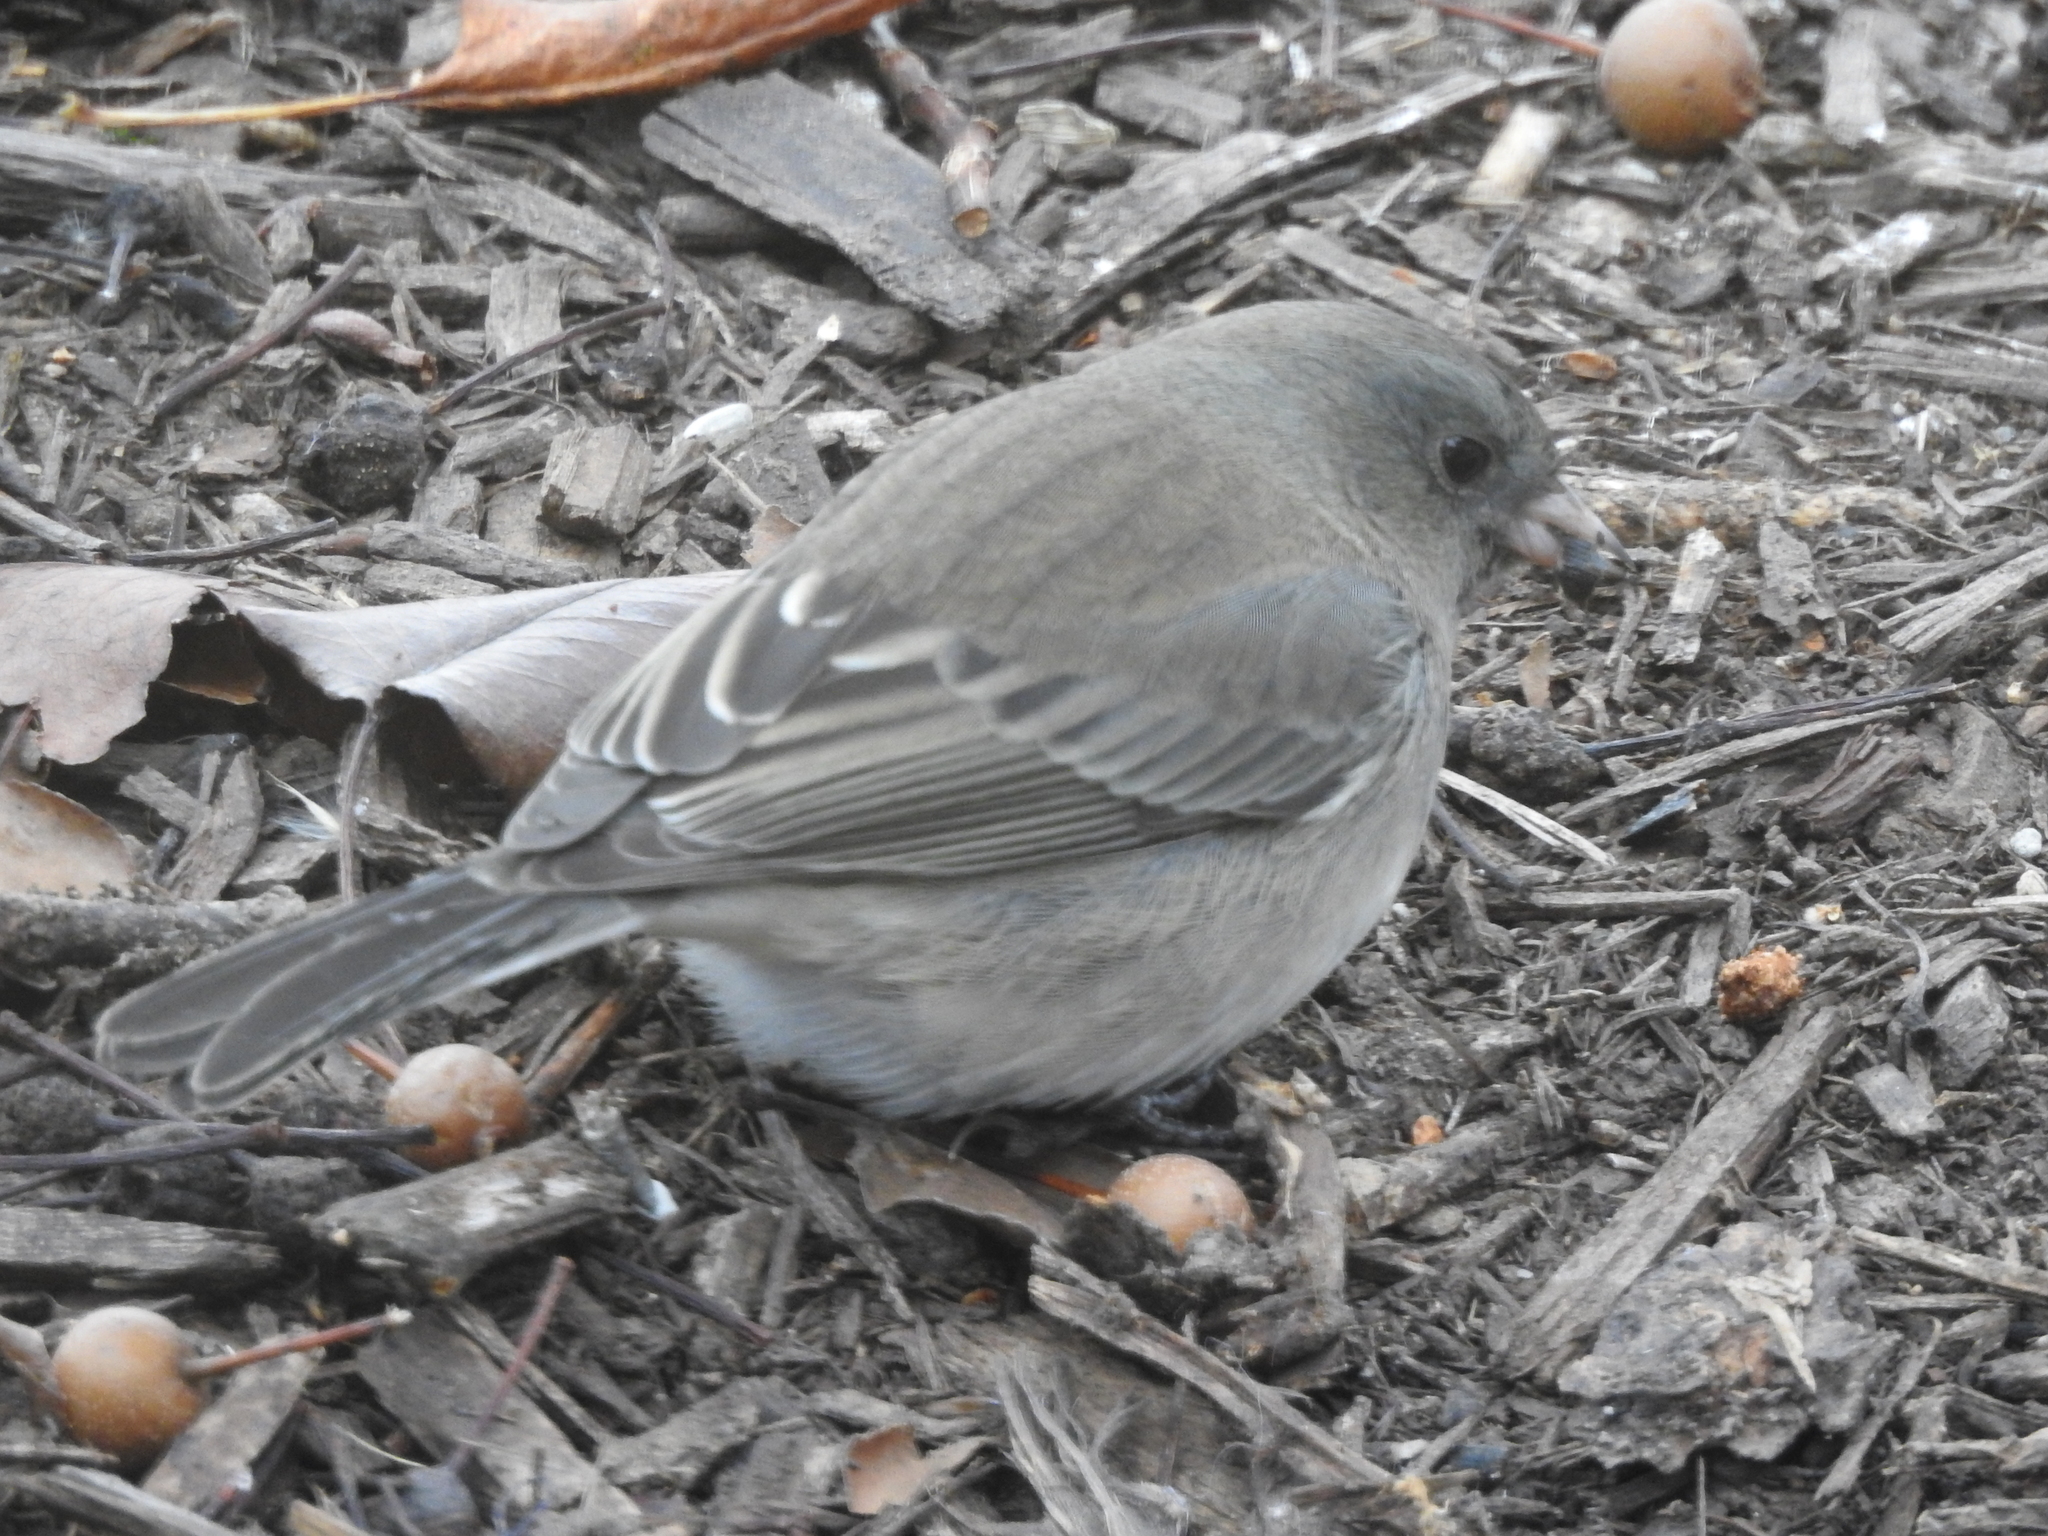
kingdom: Animalia
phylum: Chordata
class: Aves
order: Passeriformes
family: Passerellidae
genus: Junco
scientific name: Junco hyemalis
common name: Dark-eyed junco
